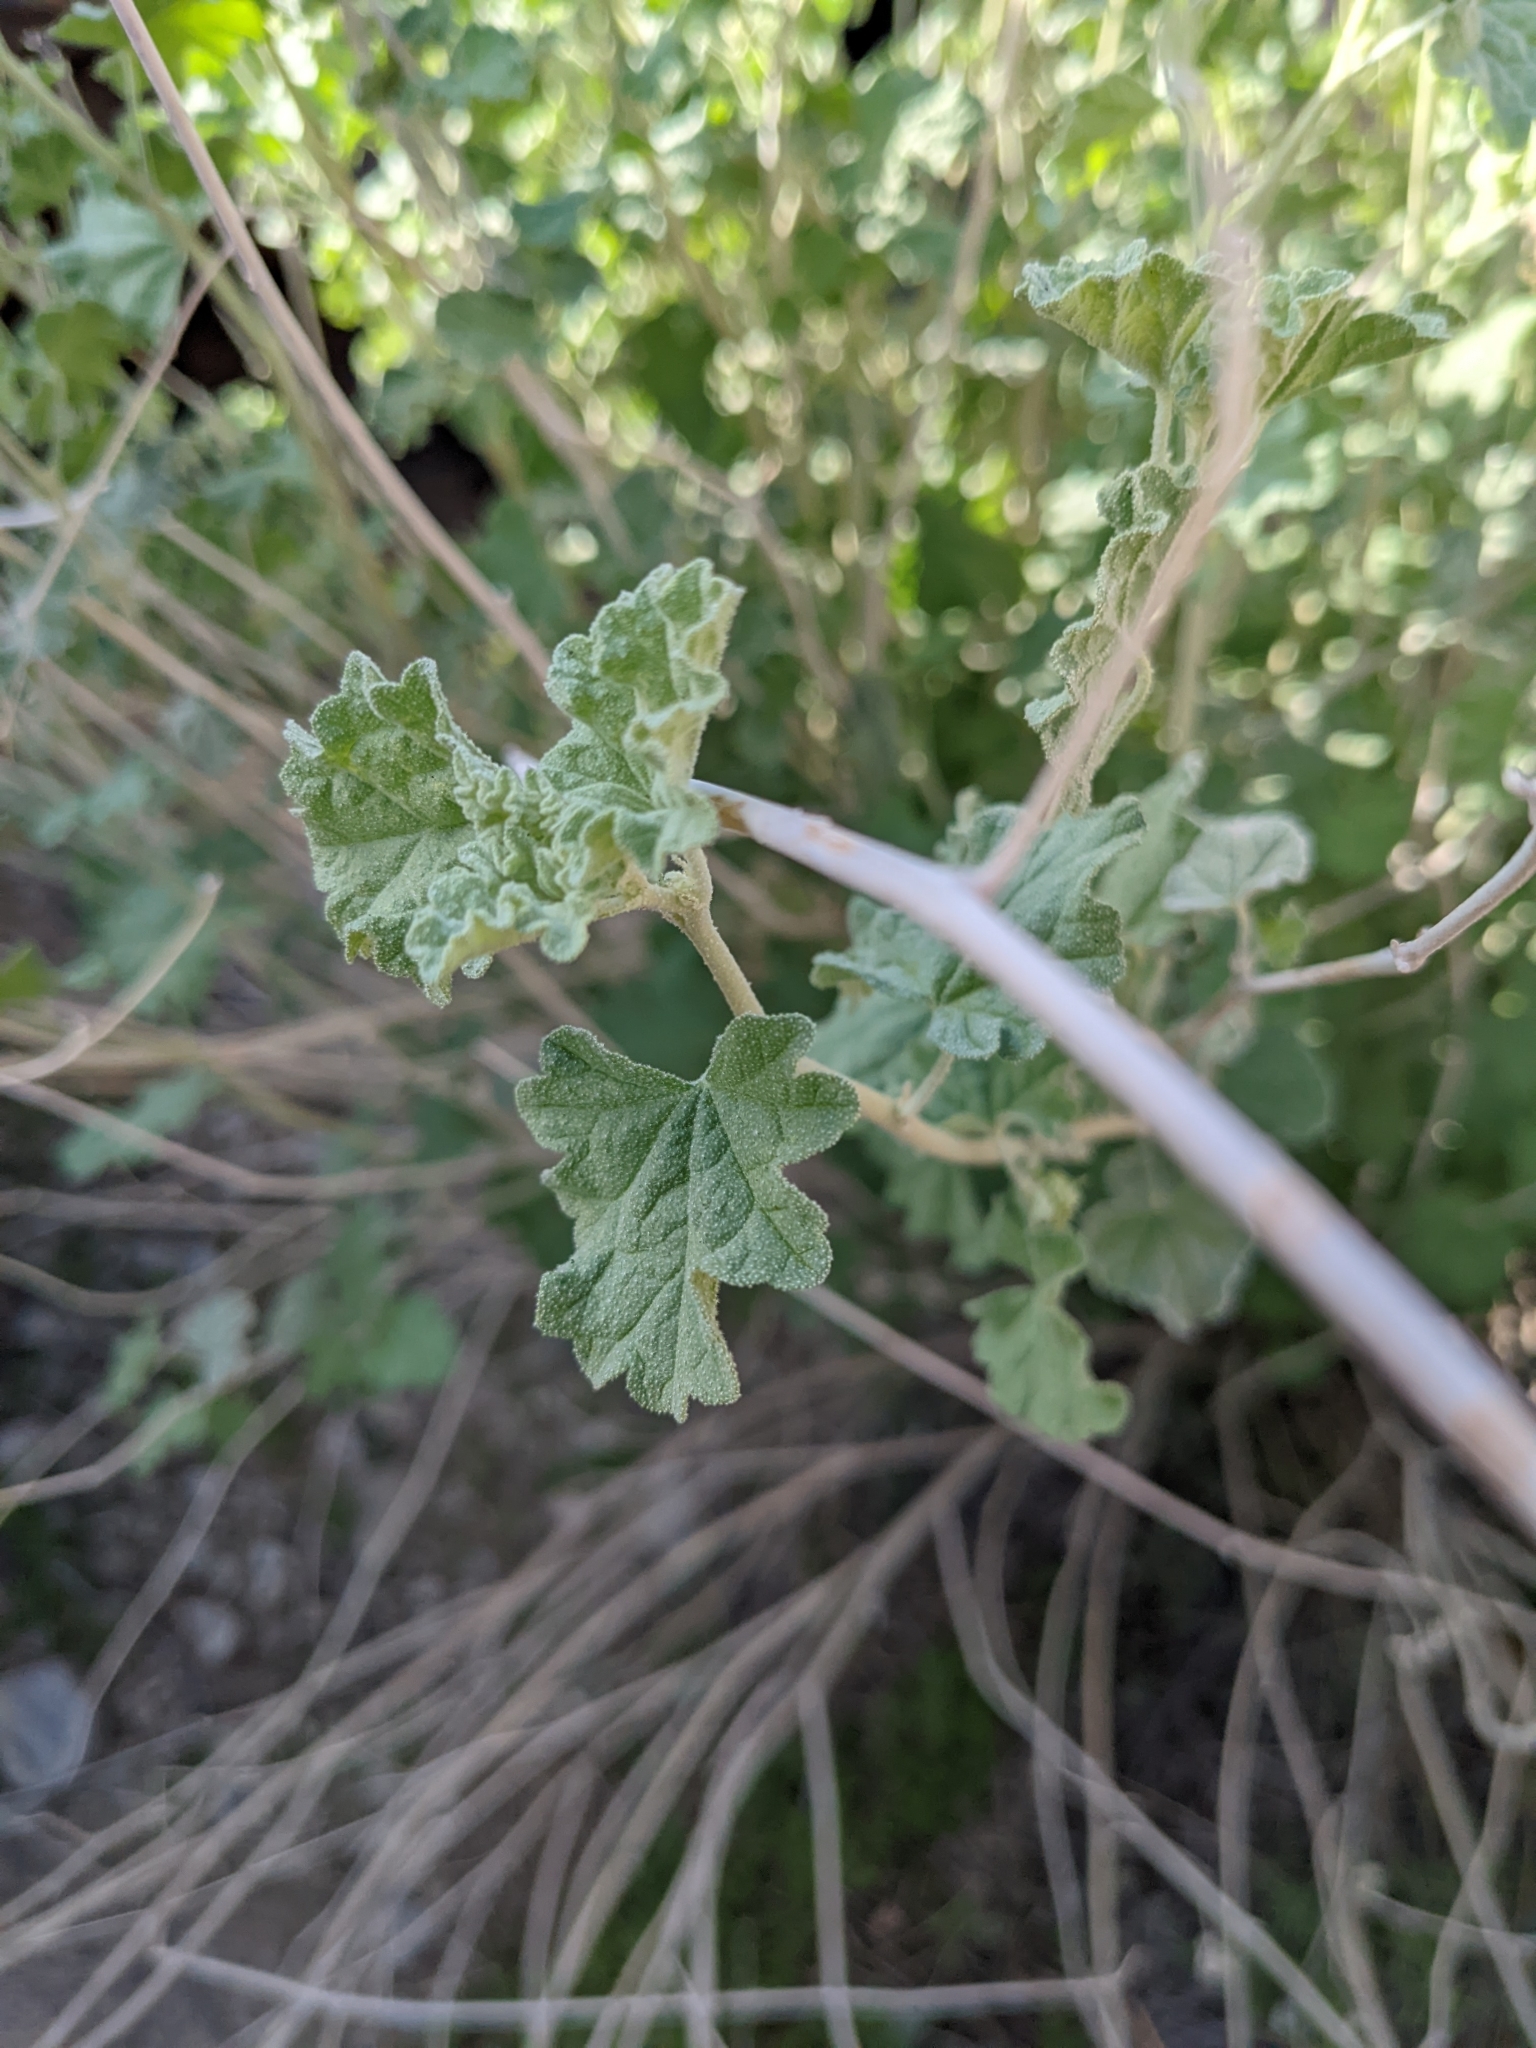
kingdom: Plantae
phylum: Tracheophyta
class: Magnoliopsida
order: Malvales
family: Malvaceae
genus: Sphaeralcea
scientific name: Sphaeralcea ambigua
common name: Apricot globe-mallow
